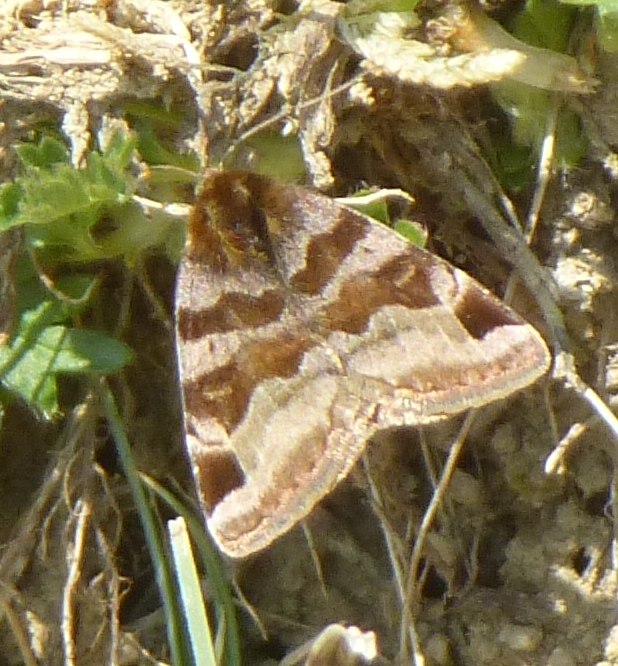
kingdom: Animalia
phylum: Arthropoda
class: Insecta
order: Lepidoptera
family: Erebidae
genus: Euclidia
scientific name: Euclidia glyphica
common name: Burnet companion
